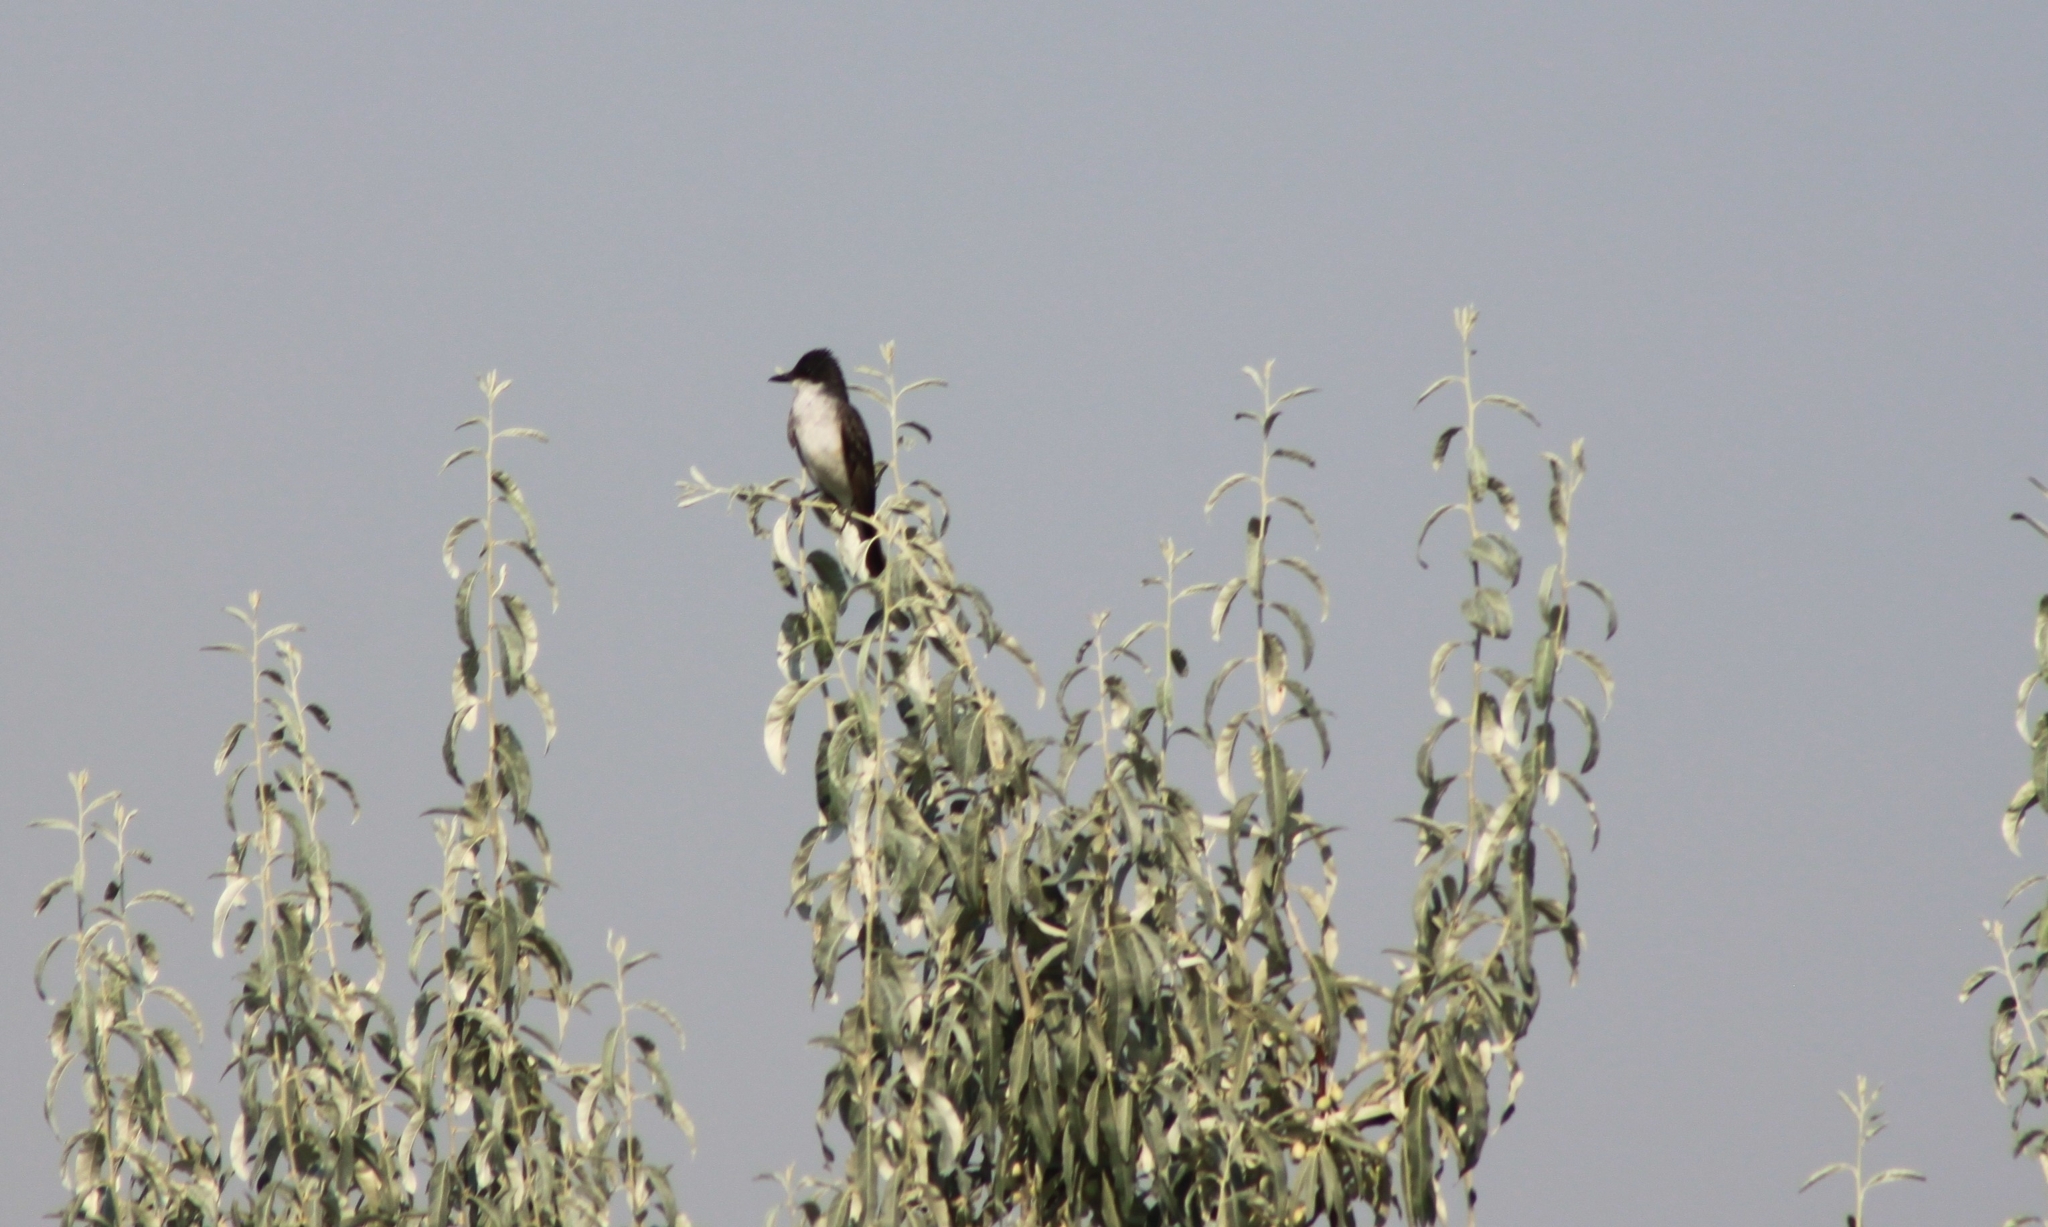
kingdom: Animalia
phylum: Chordata
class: Aves
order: Passeriformes
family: Tyrannidae
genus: Tyrannus
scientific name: Tyrannus tyrannus
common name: Eastern kingbird
